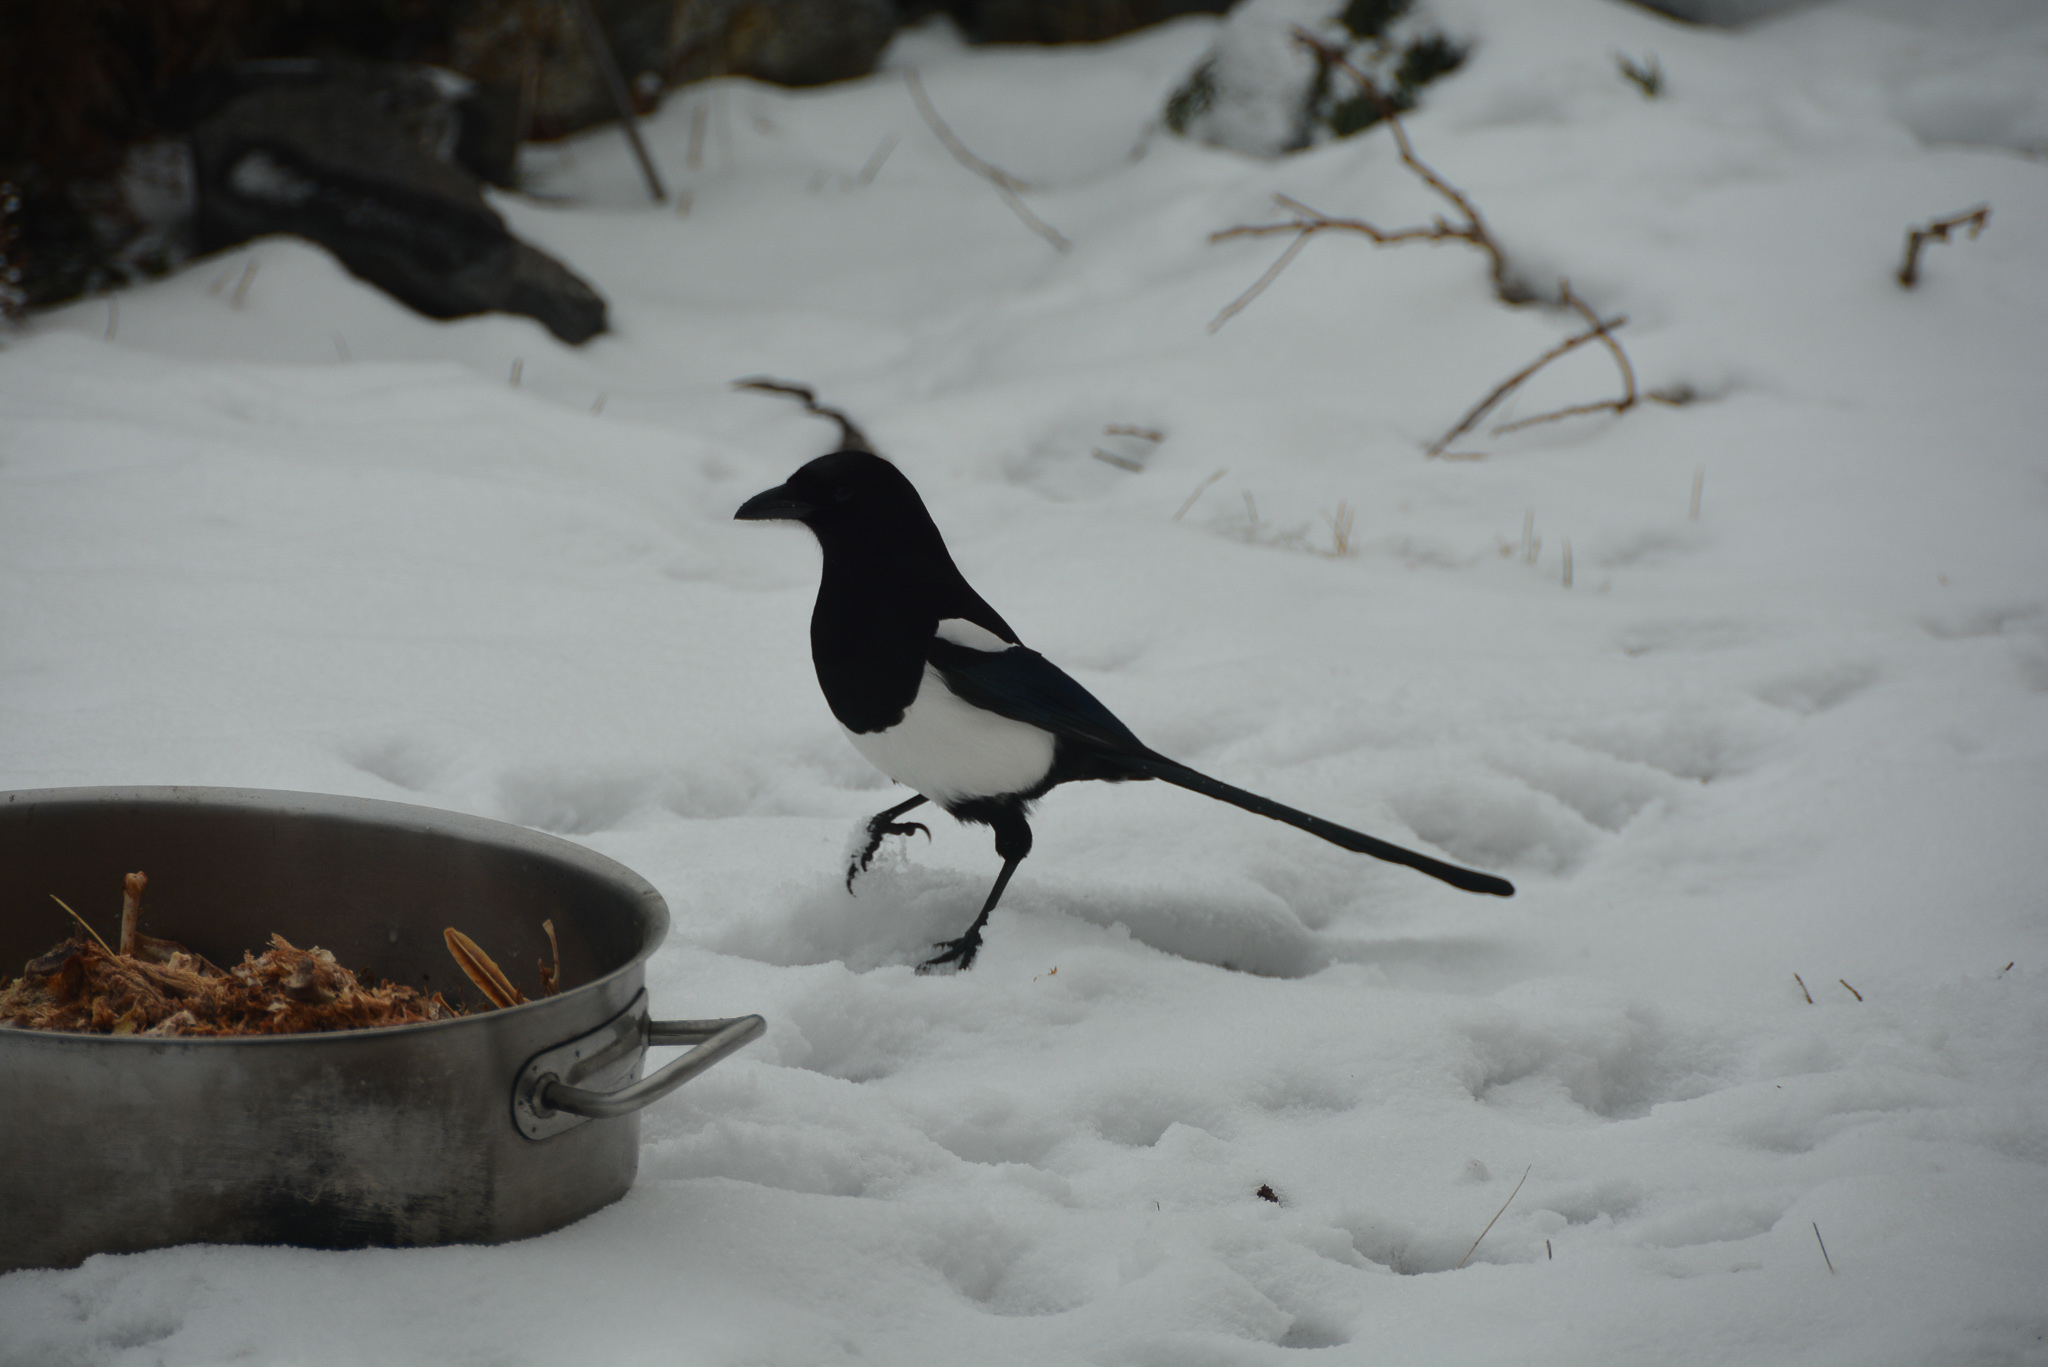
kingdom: Animalia
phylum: Chordata
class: Aves
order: Passeriformes
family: Corvidae
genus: Pica
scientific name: Pica hudsonia
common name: Black-billed magpie
